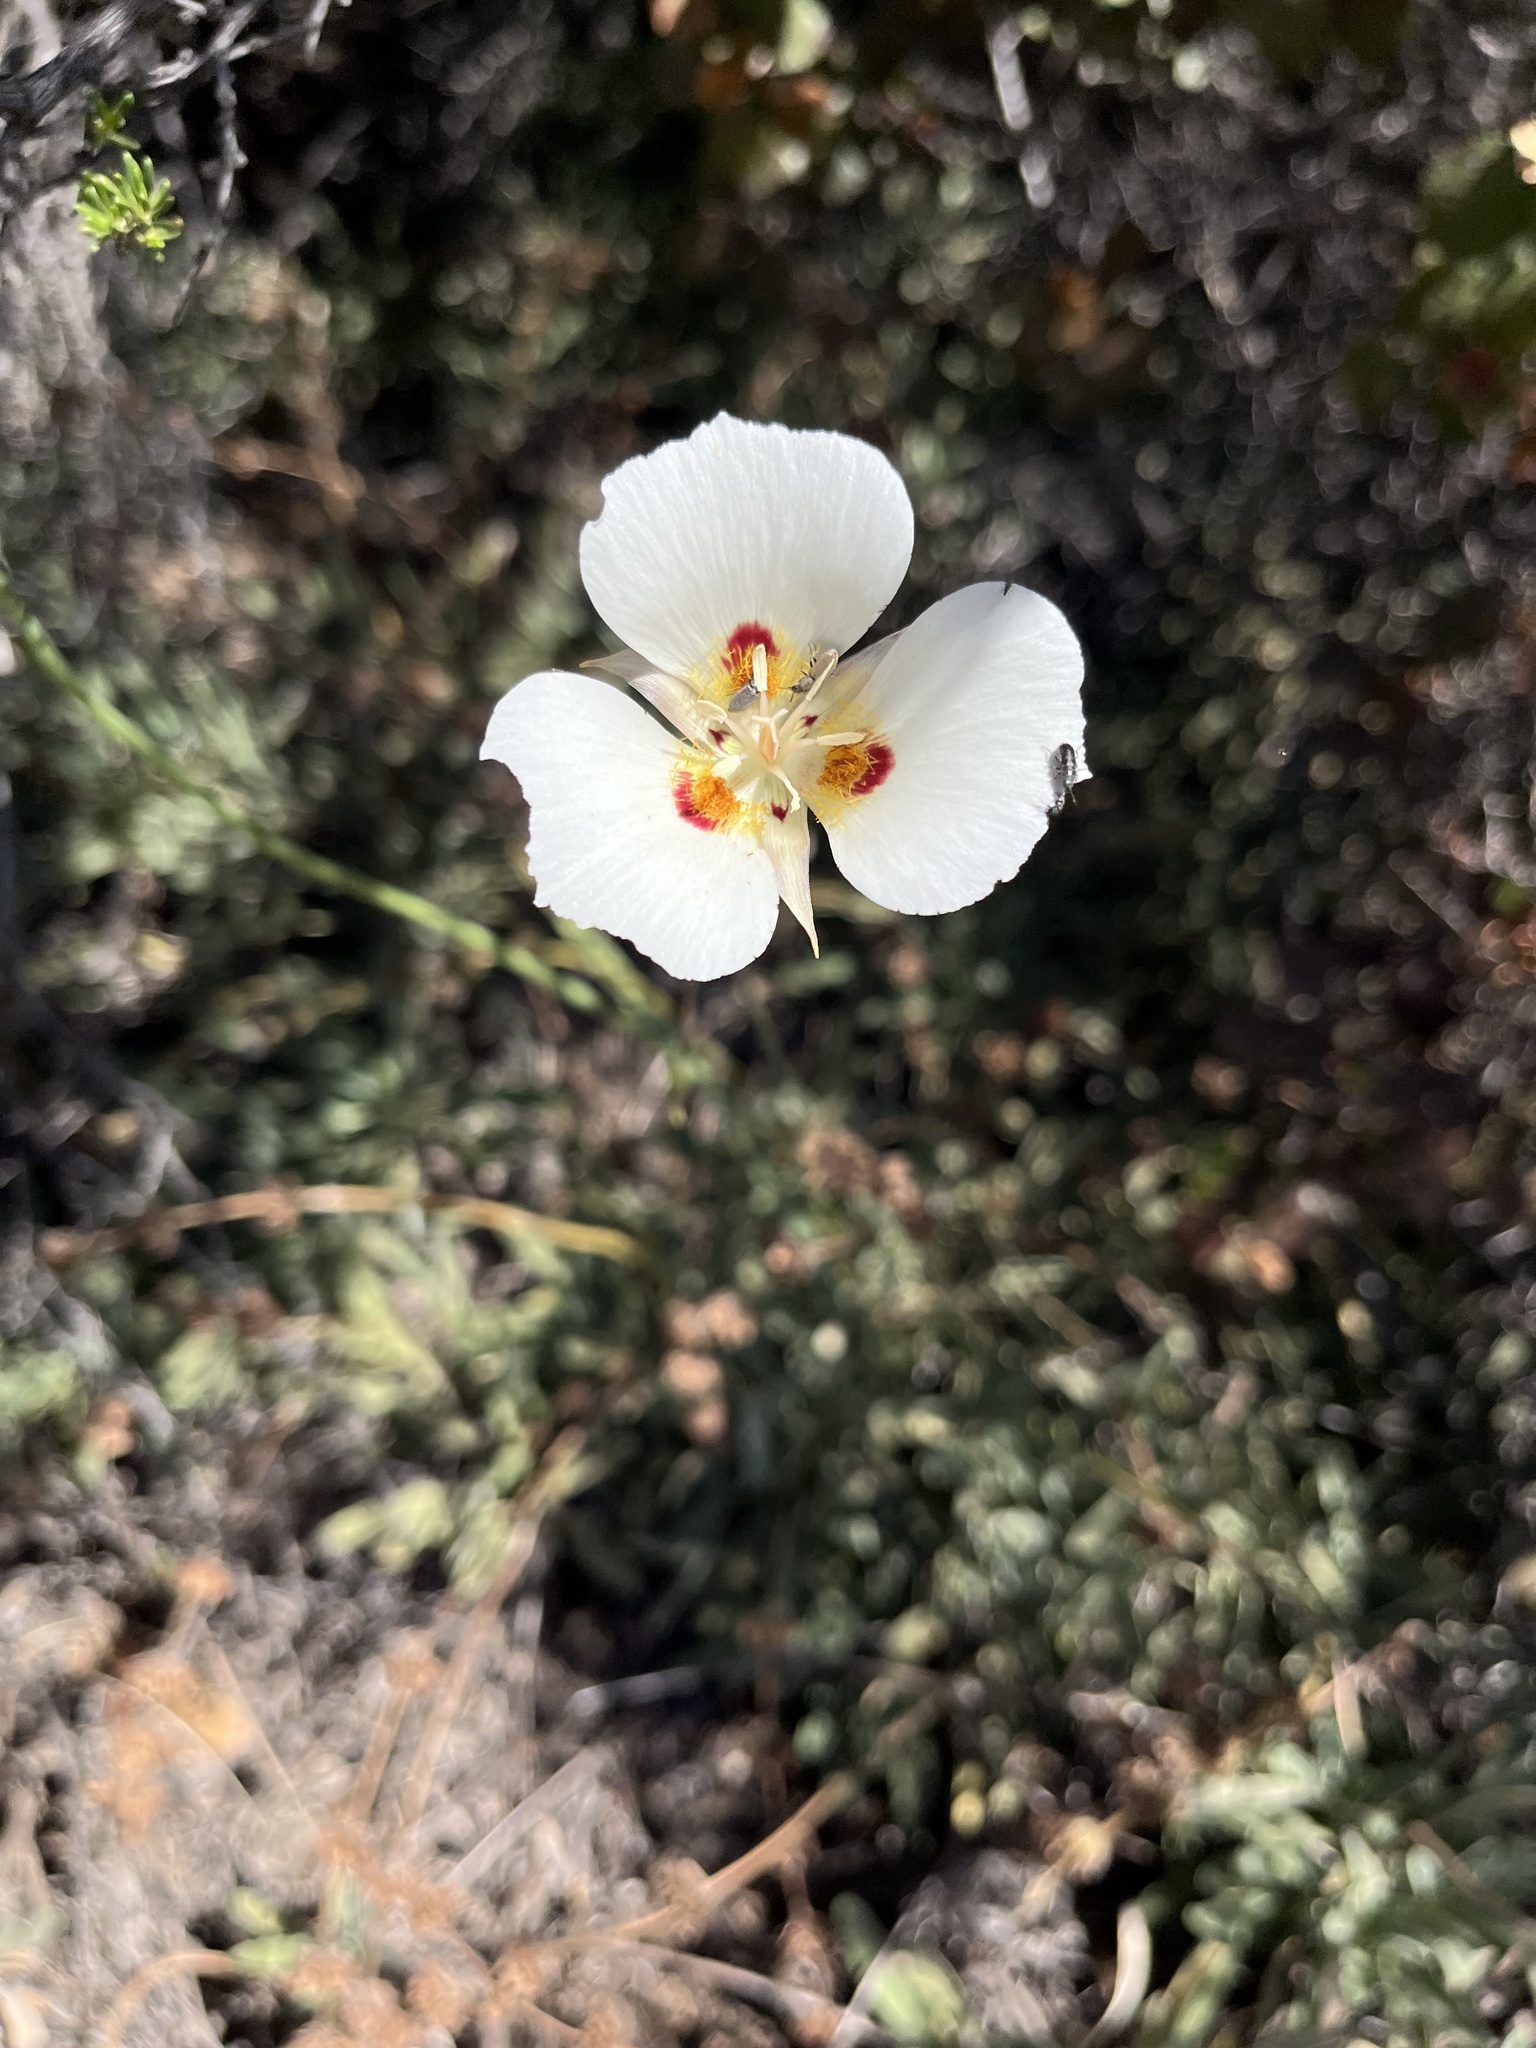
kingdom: Plantae
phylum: Tracheophyta
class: Liliopsida
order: Liliales
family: Liliaceae
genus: Calochortus
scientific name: Calochortus dunnii
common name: Dunn's mariposa-lily
